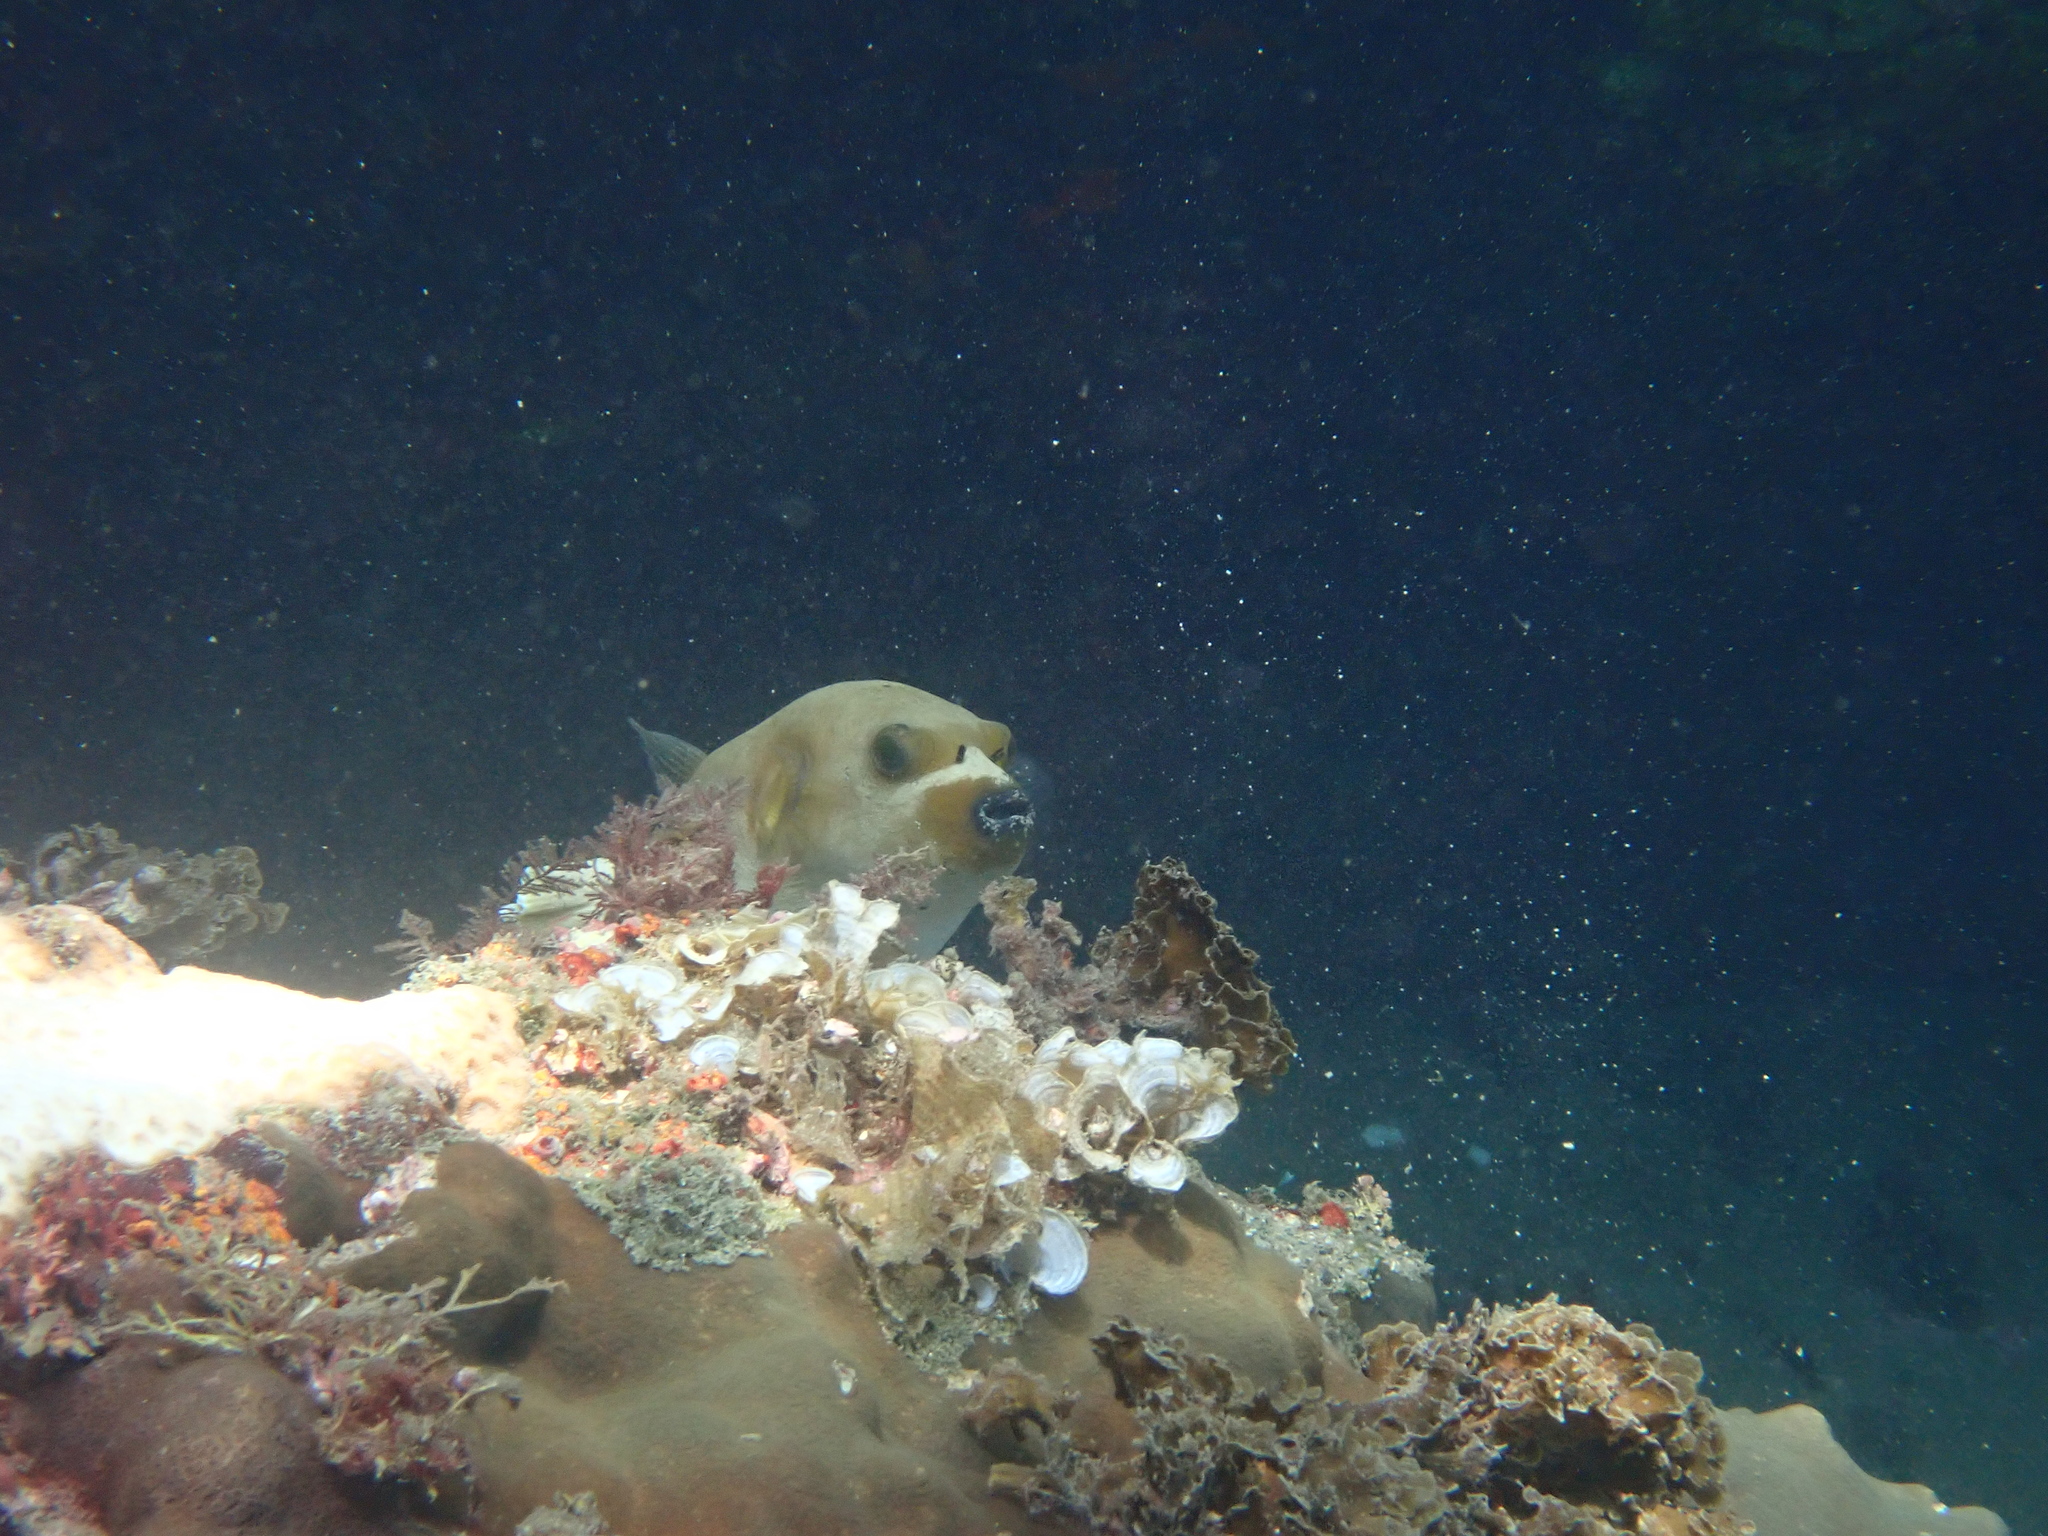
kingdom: Animalia
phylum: Chordata
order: Tetraodontiformes
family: Tetraodontidae
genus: Arothron
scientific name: Arothron nigropunctatus
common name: Black spotted blow fish
